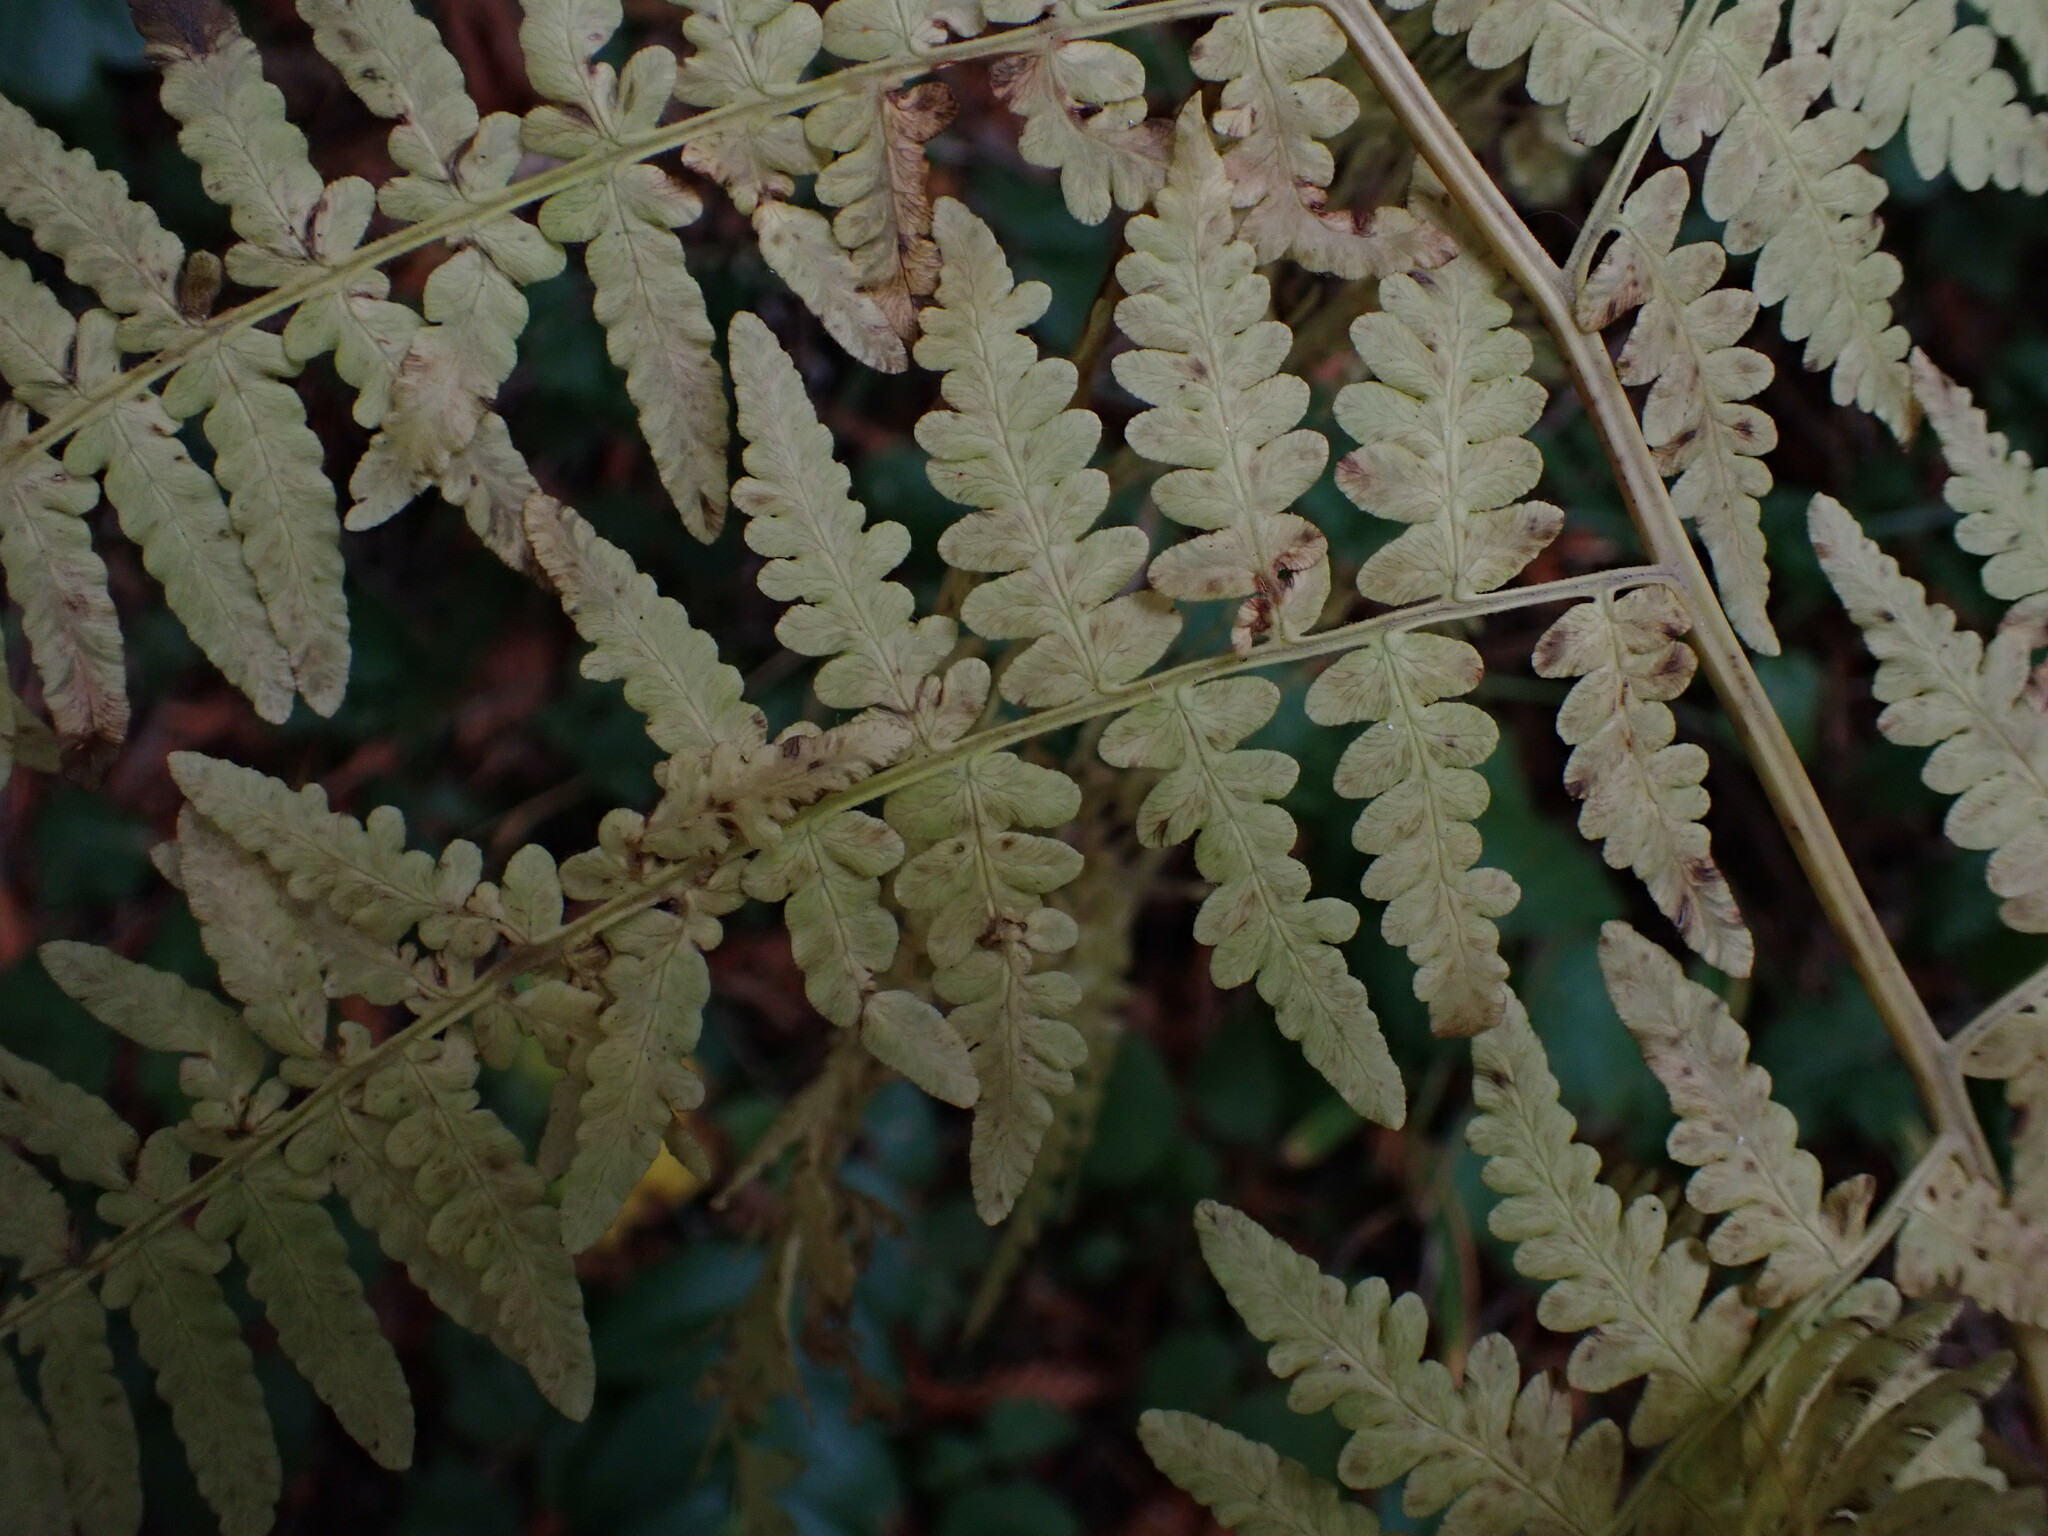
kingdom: Plantae
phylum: Tracheophyta
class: Polypodiopsida
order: Polypodiales
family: Dennstaedtiaceae
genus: Pteridium
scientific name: Pteridium aquilinum
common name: Bracken
